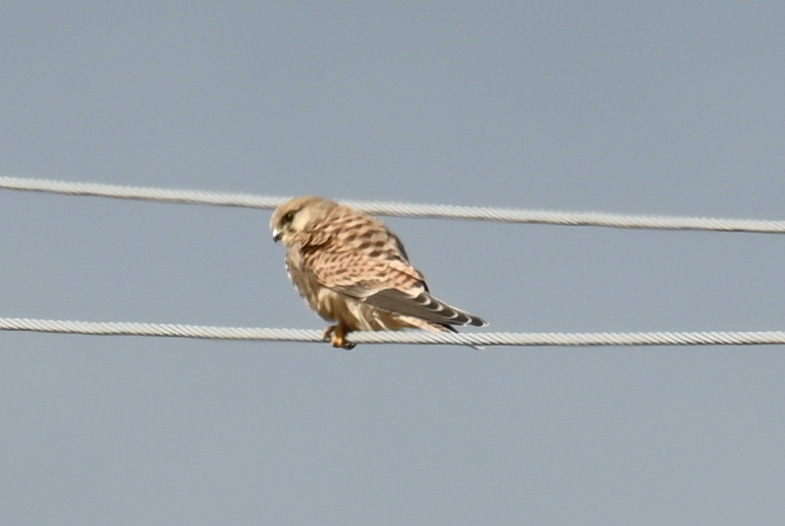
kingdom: Animalia
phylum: Chordata
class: Aves
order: Falconiformes
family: Falconidae
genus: Falco
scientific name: Falco tinnunculus
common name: Common kestrel
